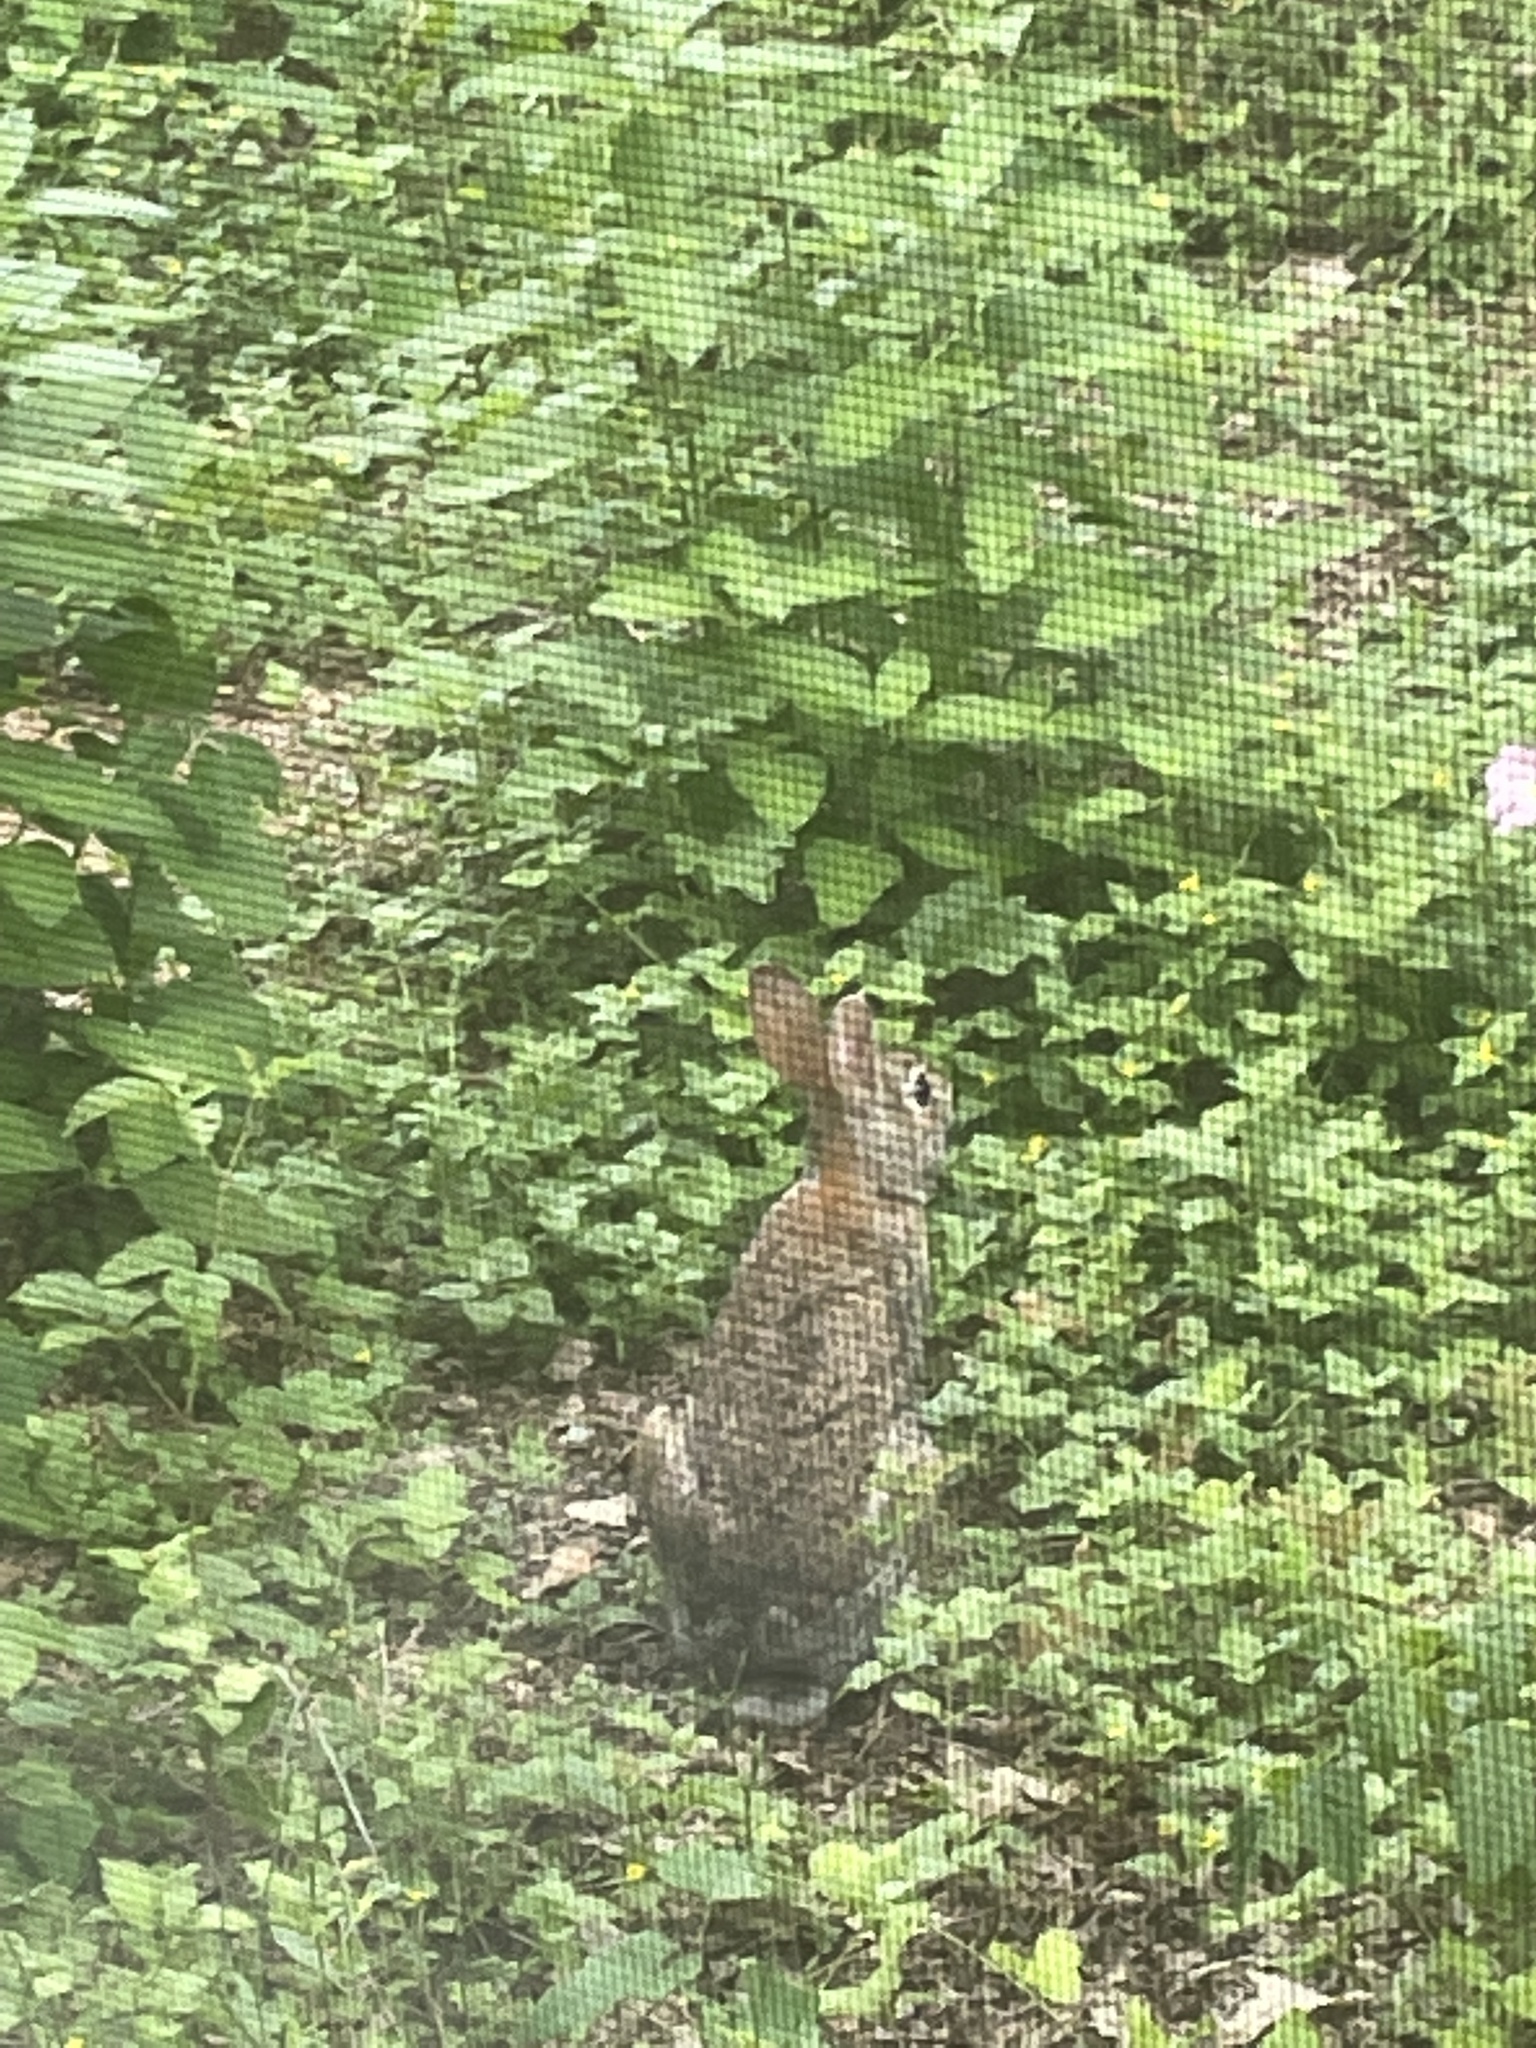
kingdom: Animalia
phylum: Chordata
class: Mammalia
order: Lagomorpha
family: Leporidae
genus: Sylvilagus
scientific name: Sylvilagus floridanus
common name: Eastern cottontail
